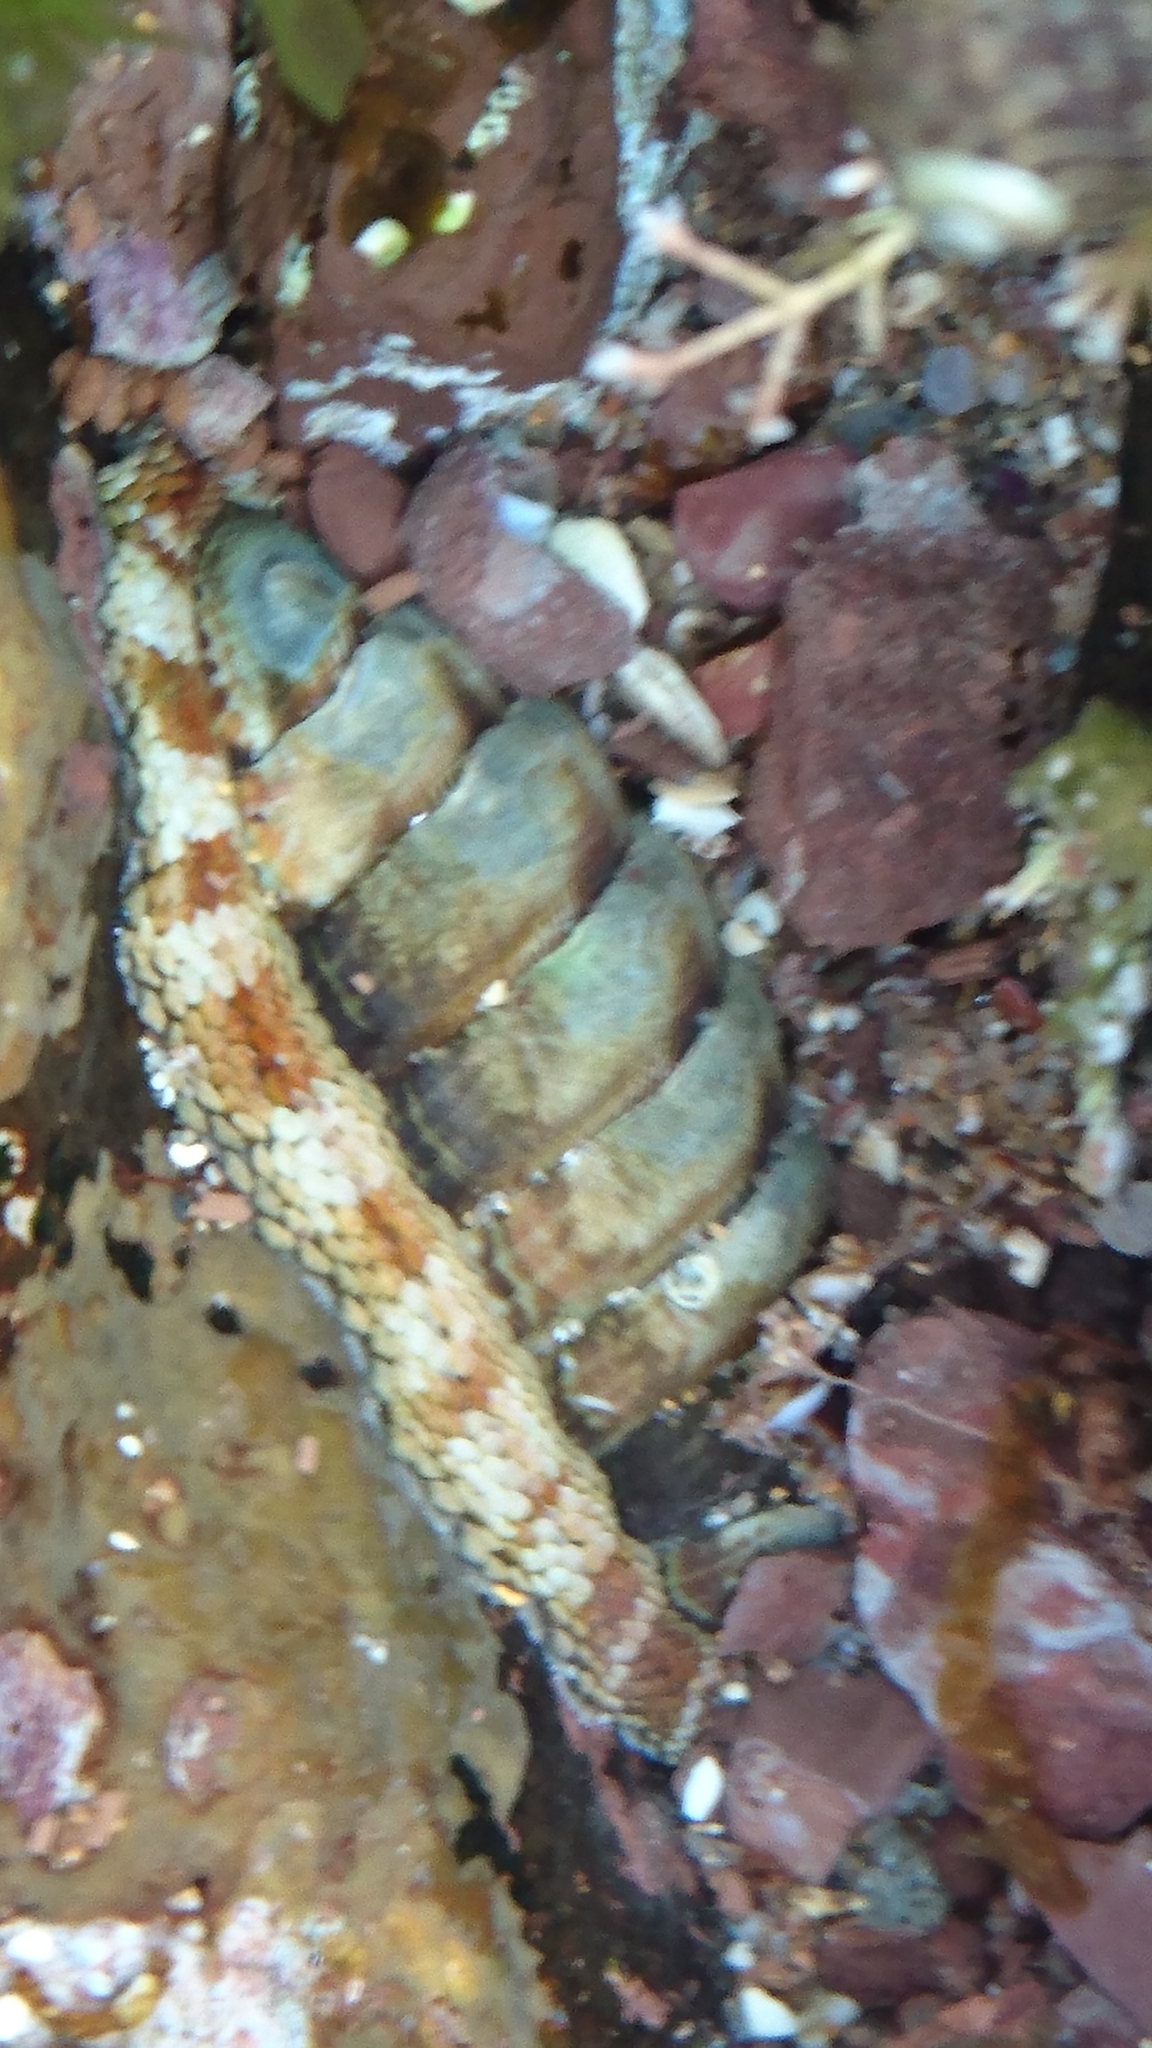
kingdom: Animalia
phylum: Mollusca
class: Polyplacophora
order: Chitonida
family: Chitonidae
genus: Sypharochiton
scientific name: Sypharochiton pelliserpentis
